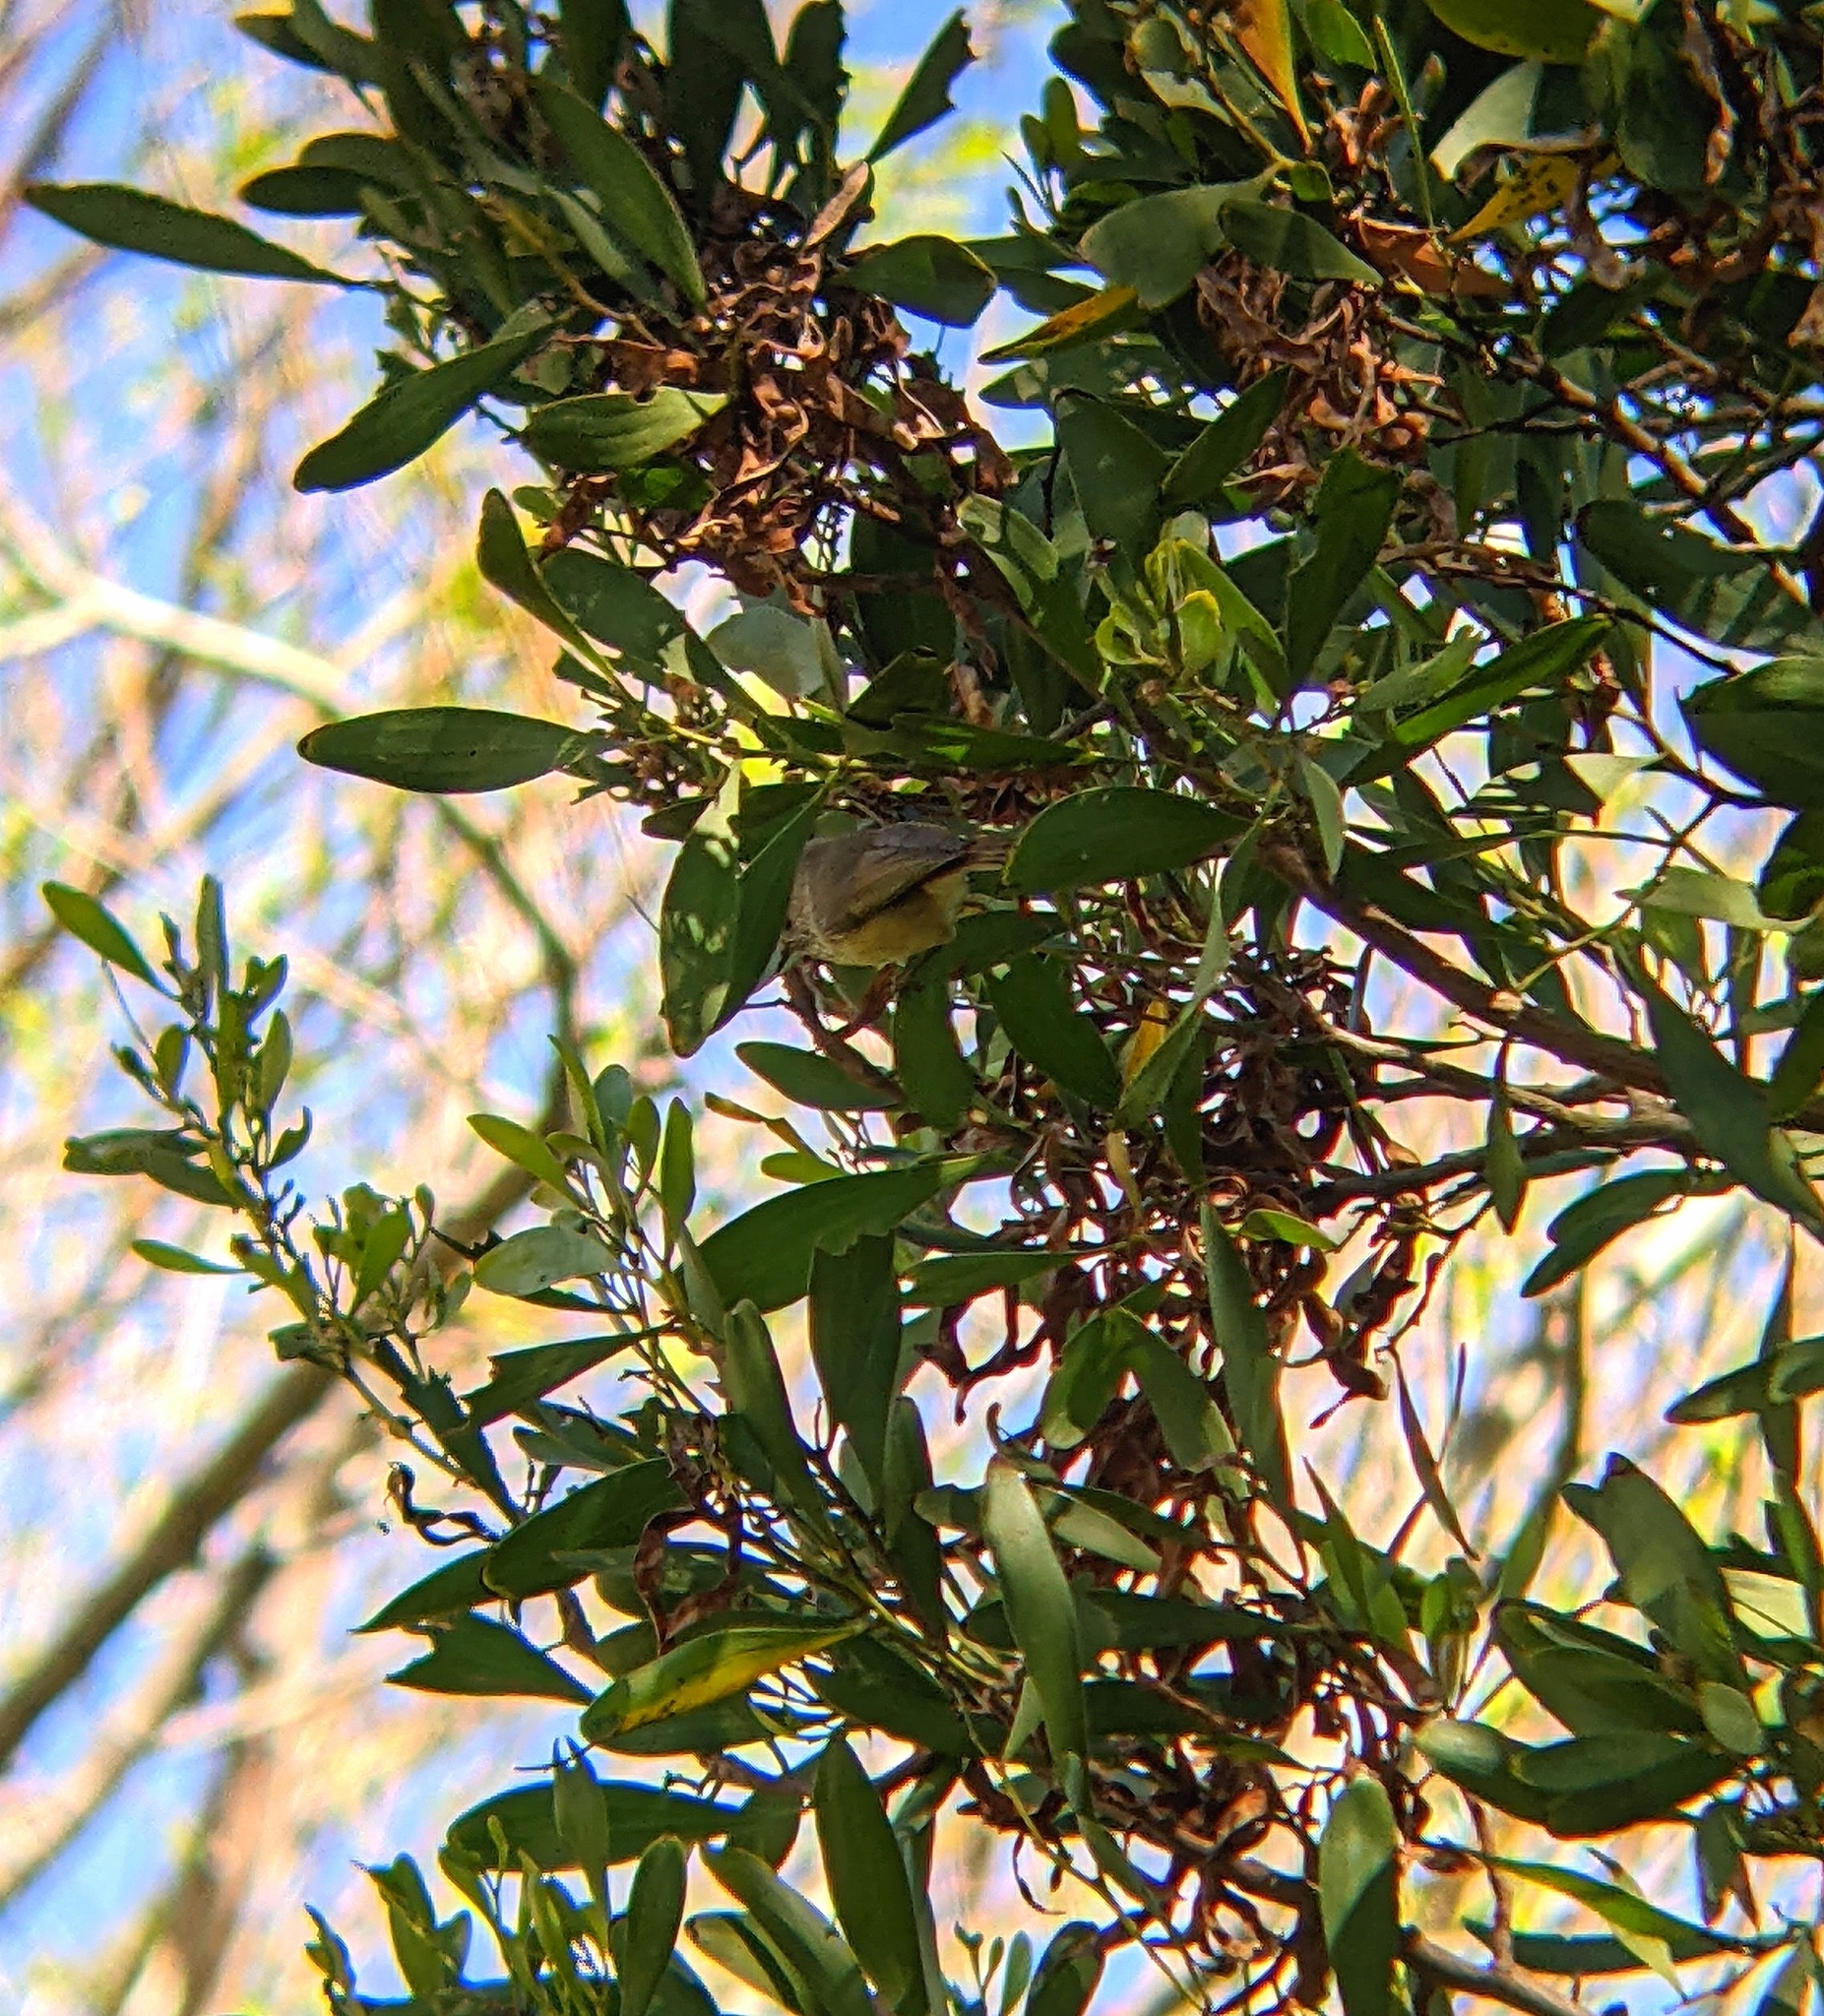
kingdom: Animalia
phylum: Chordata
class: Aves
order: Passeriformes
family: Acanthizidae
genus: Acanthiza
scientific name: Acanthiza pusilla
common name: Brown thornbill
